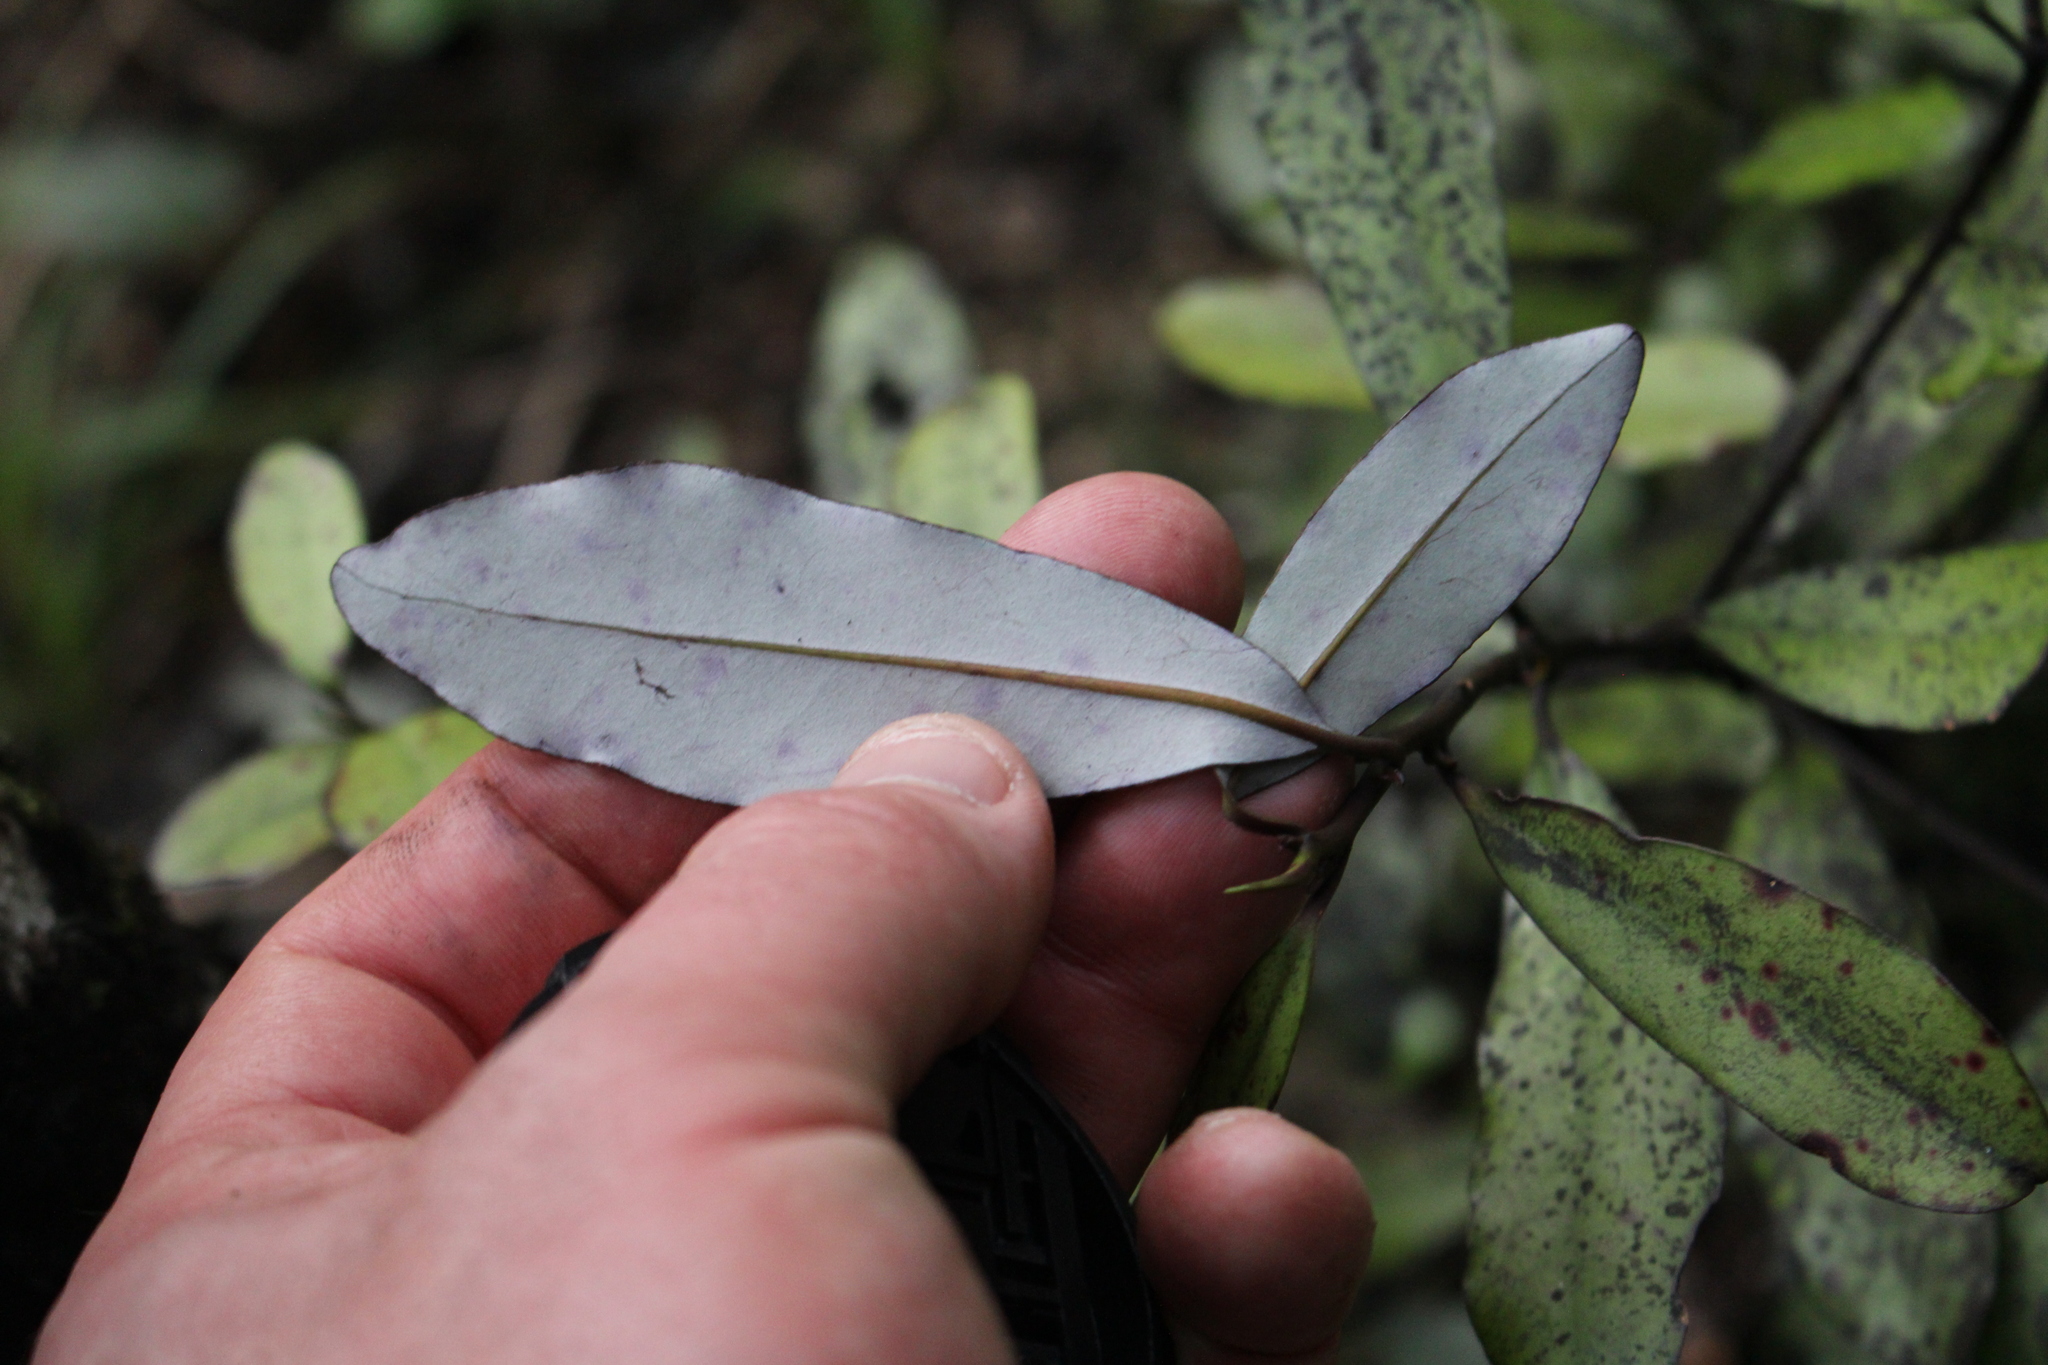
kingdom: Plantae
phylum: Tracheophyta
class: Magnoliopsida
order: Canellales
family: Winteraceae
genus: Pseudowintera
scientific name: Pseudowintera colorata
